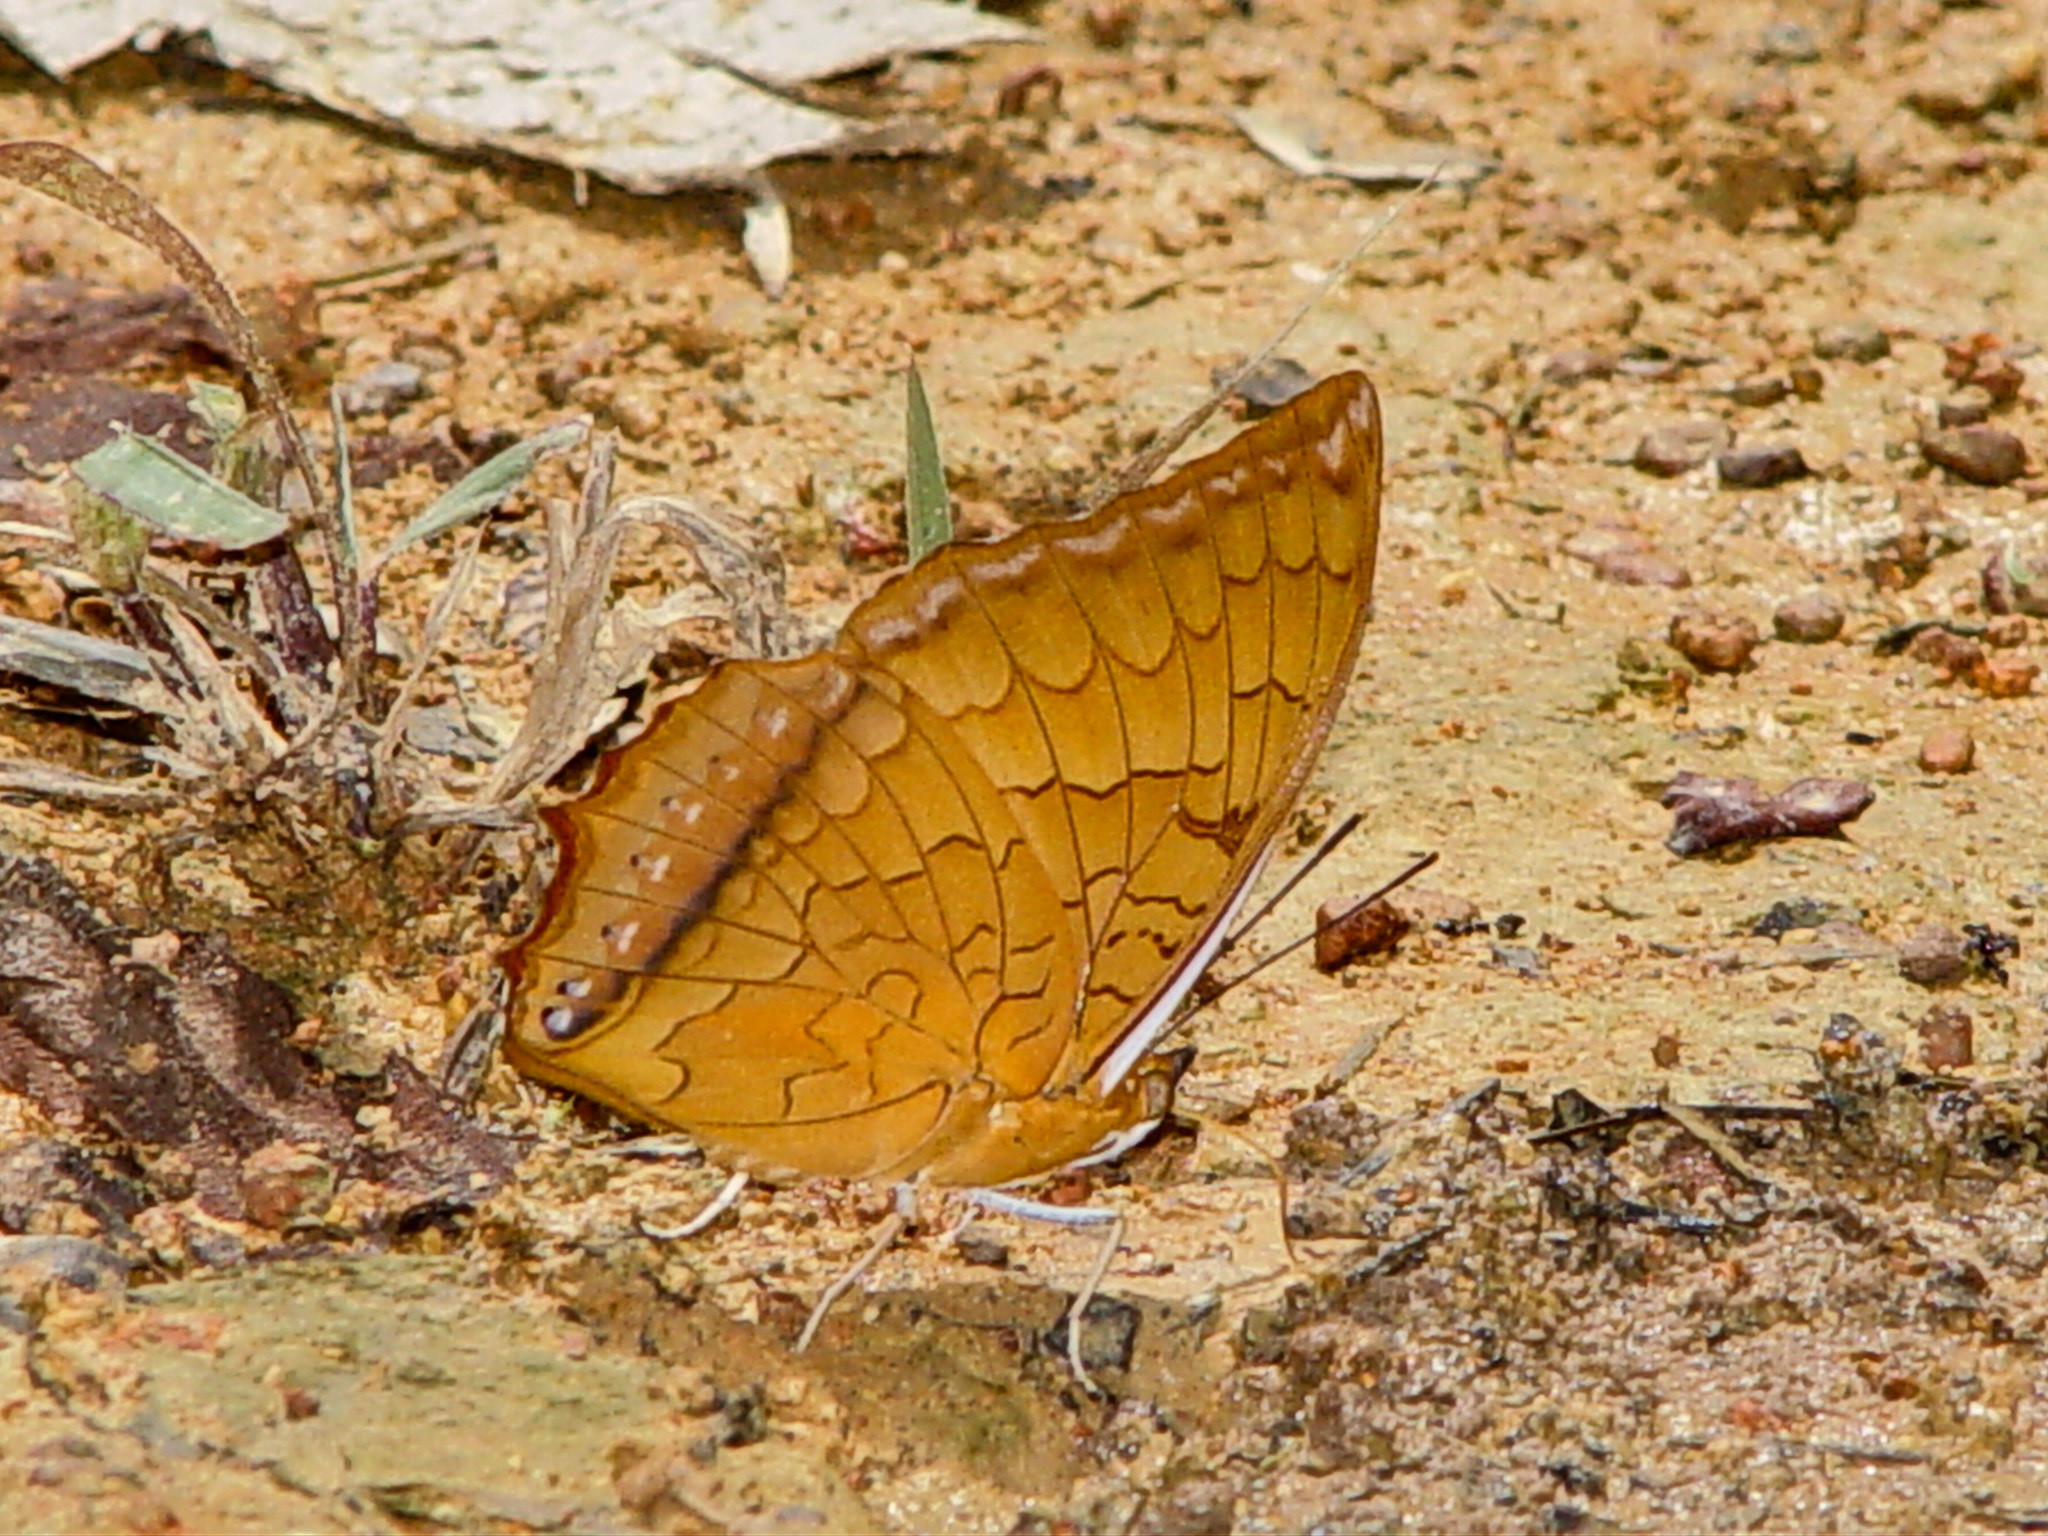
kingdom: Animalia
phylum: Arthropoda
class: Insecta
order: Lepidoptera
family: Nymphalidae
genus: Charaxes
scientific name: Charaxes distanti
